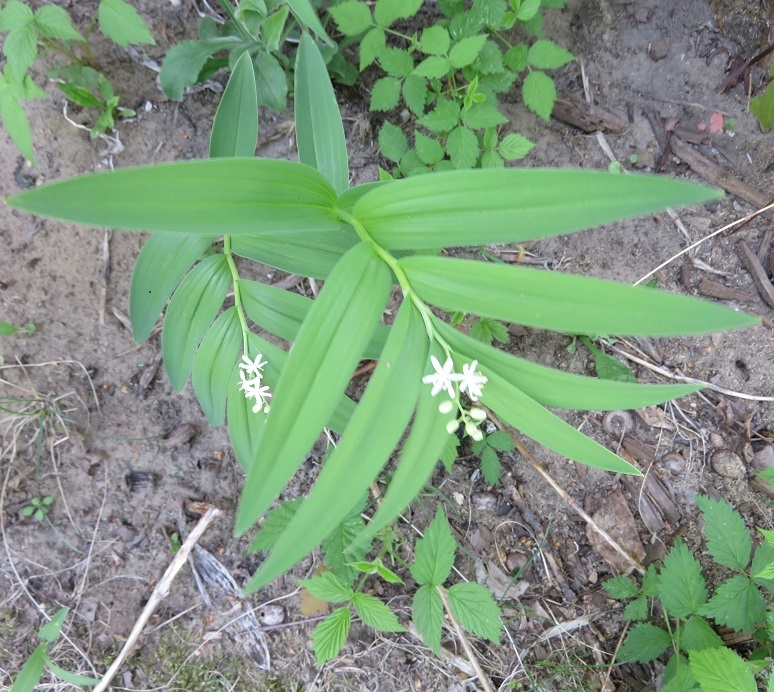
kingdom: Plantae
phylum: Tracheophyta
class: Liliopsida
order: Asparagales
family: Asparagaceae
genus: Maianthemum
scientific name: Maianthemum stellatum
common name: Little false solomon's seal
